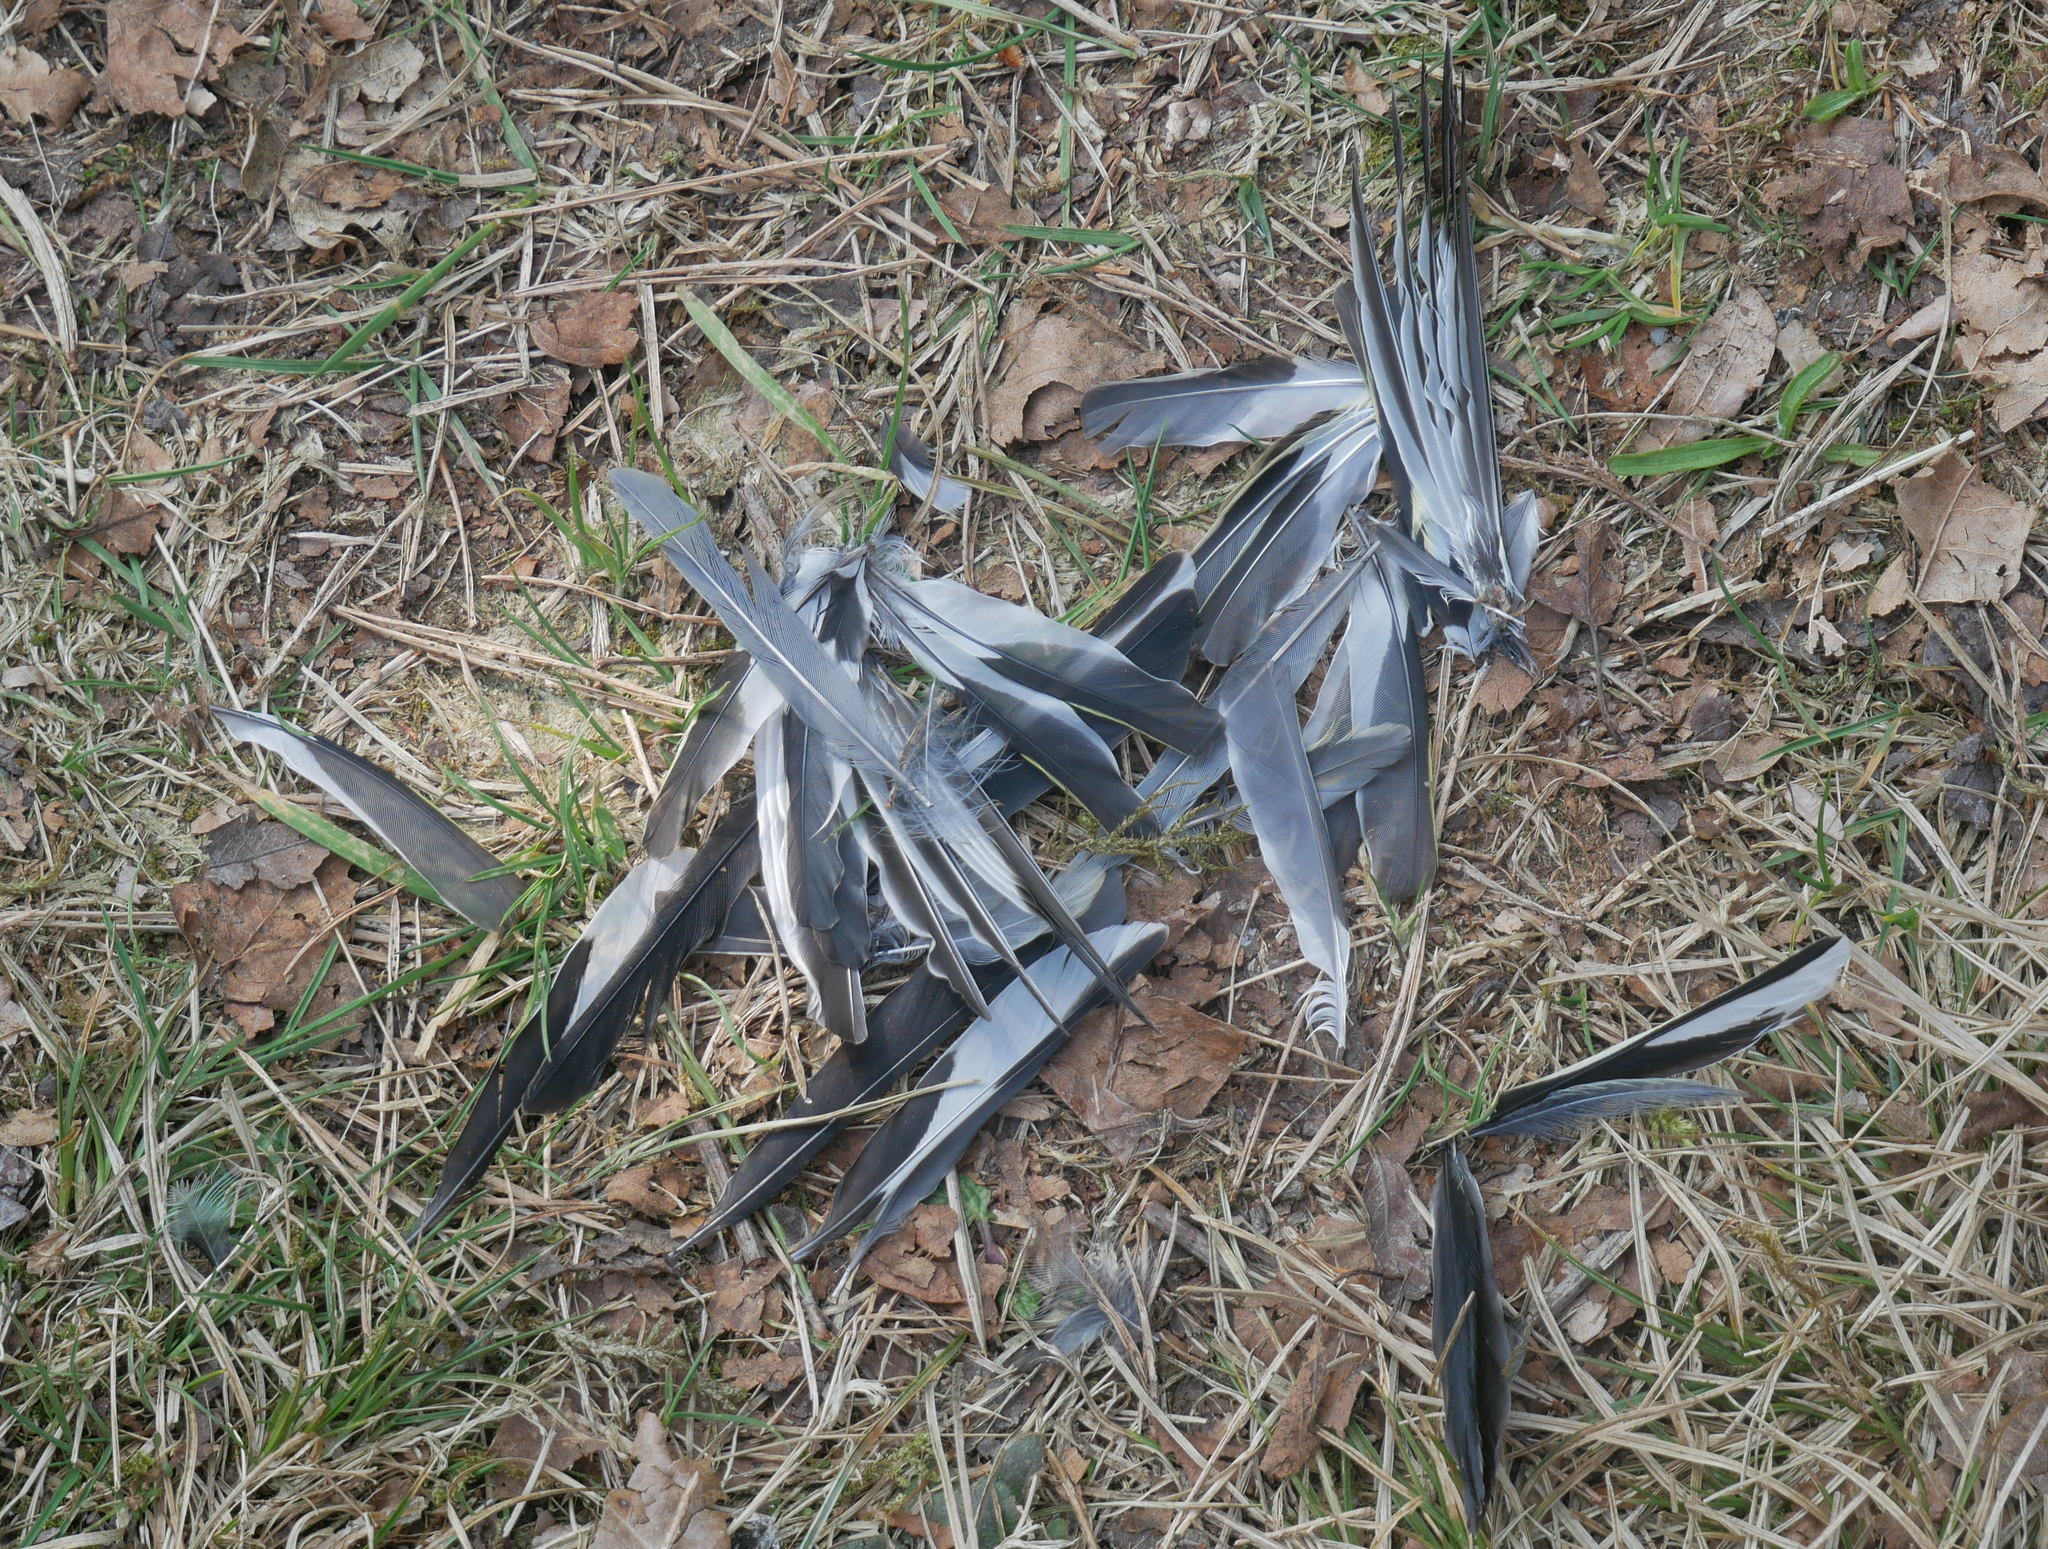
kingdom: Animalia
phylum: Chordata
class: Aves
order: Passeriformes
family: Fringillidae
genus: Fringilla
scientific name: Fringilla coelebs
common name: Common chaffinch
